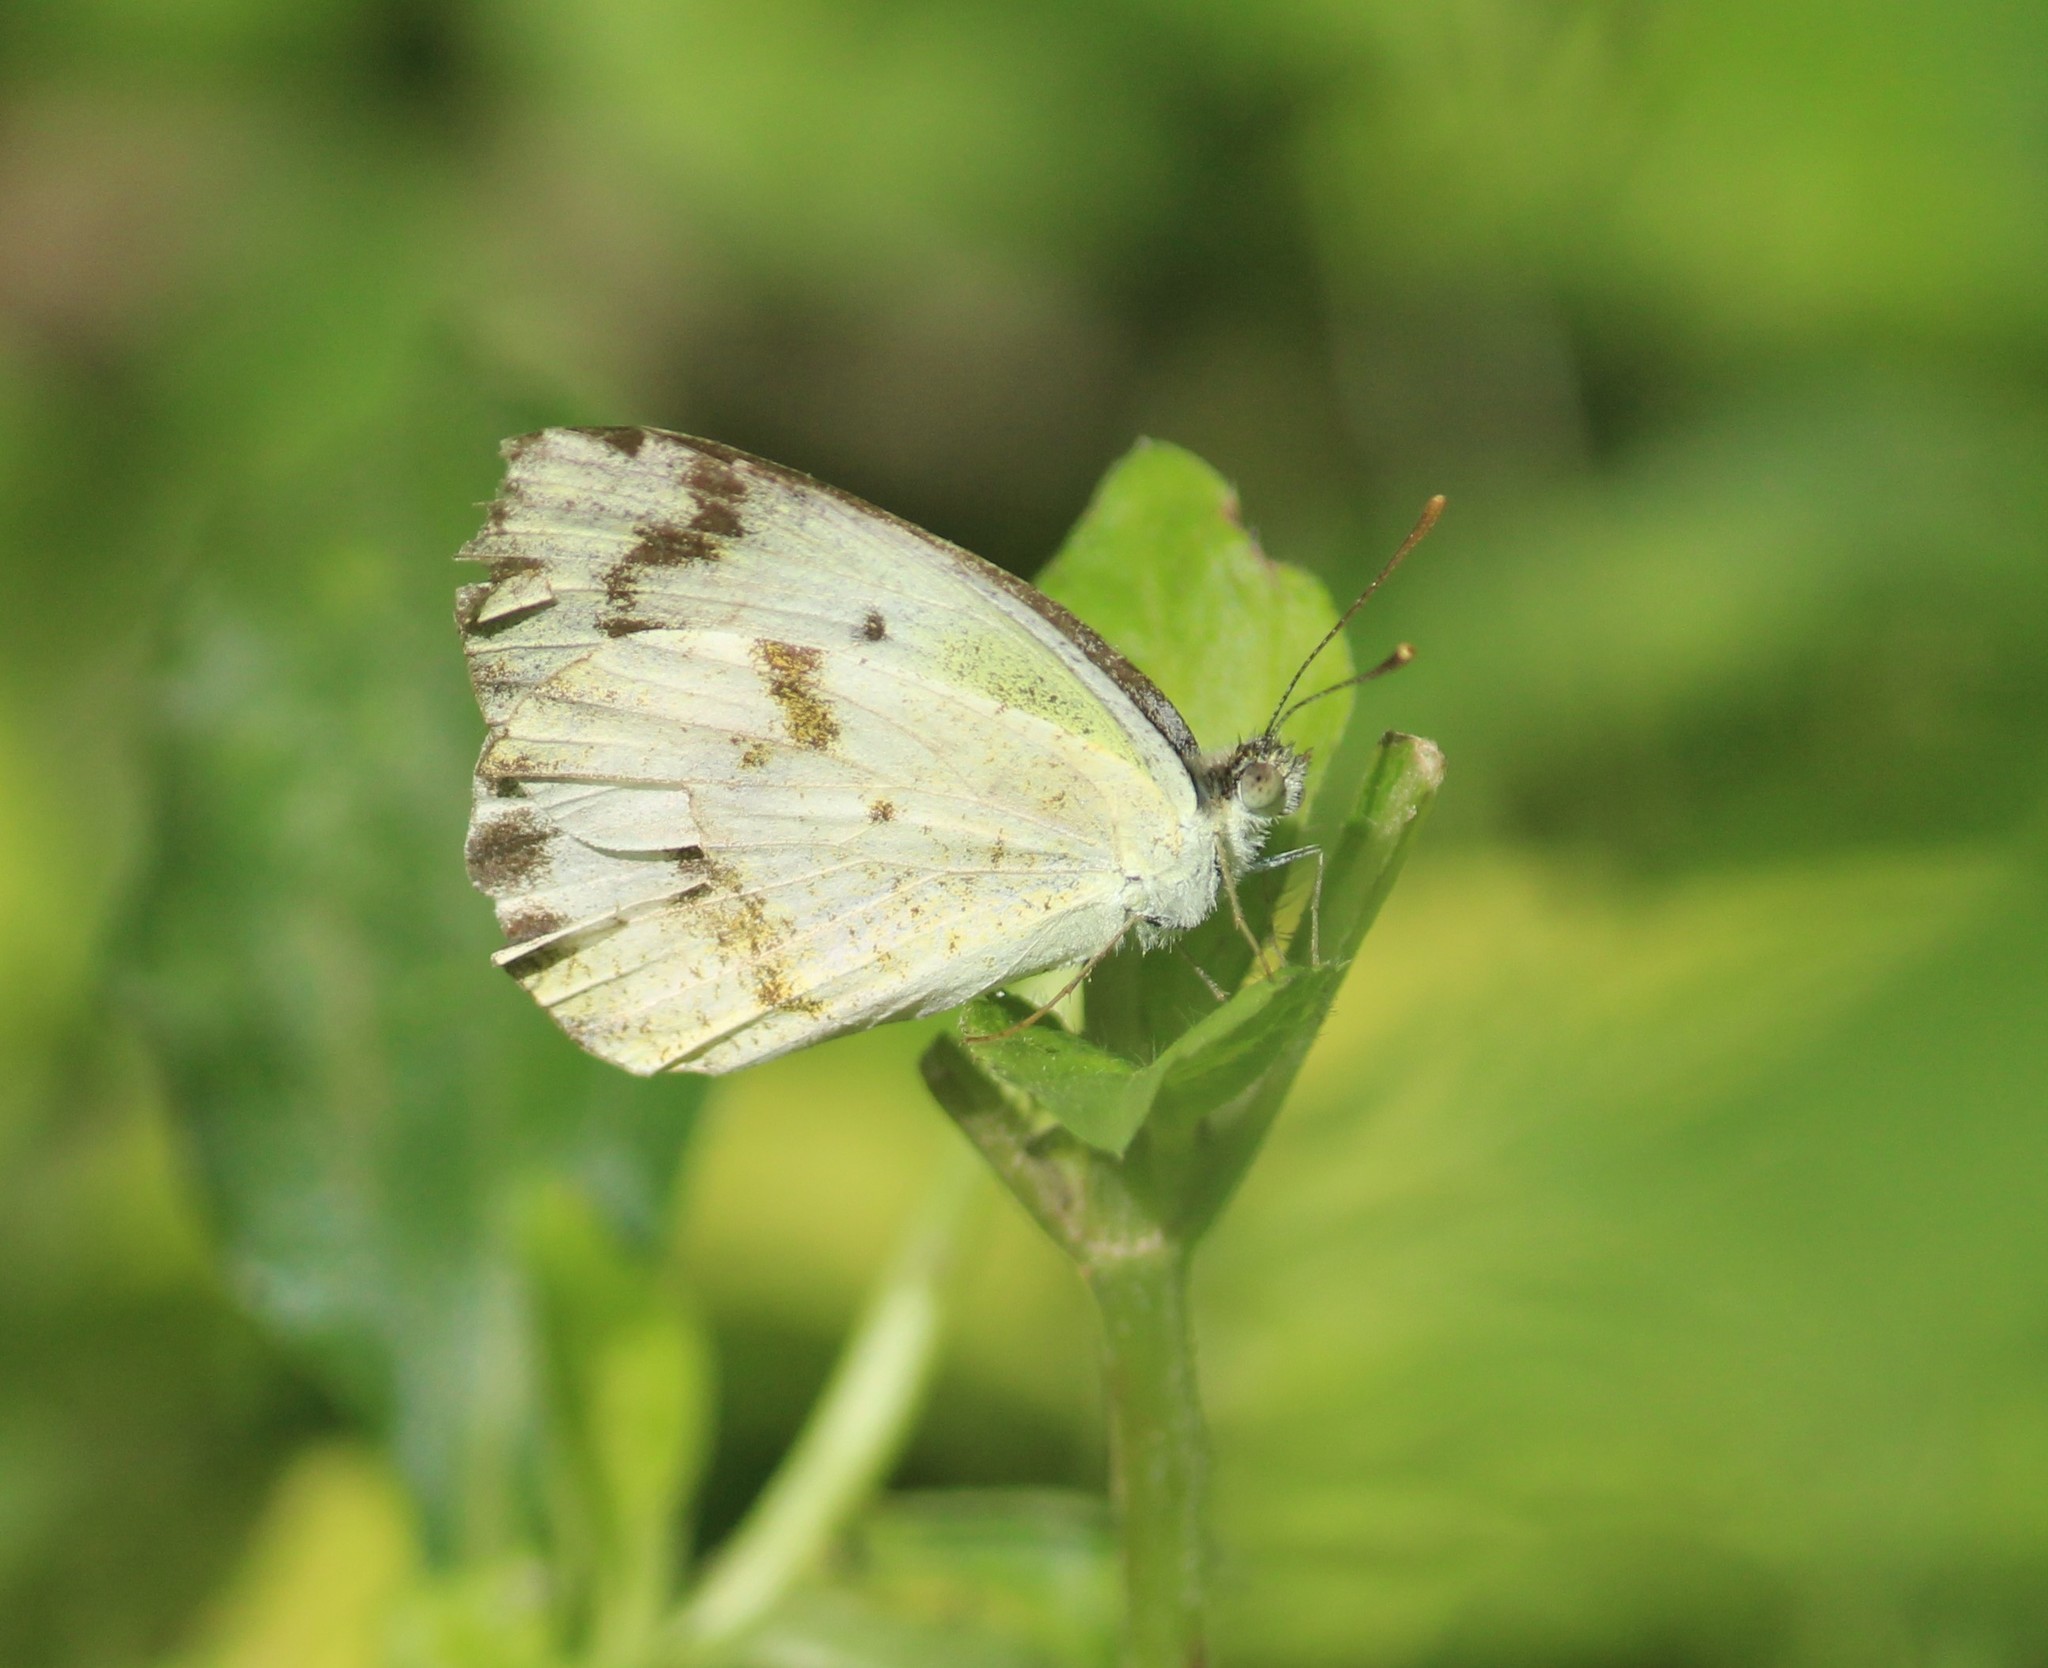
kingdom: Animalia
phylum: Arthropoda
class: Insecta
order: Lepidoptera
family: Pieridae
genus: Colotis
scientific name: Colotis aurora
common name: Plain orange-tip
